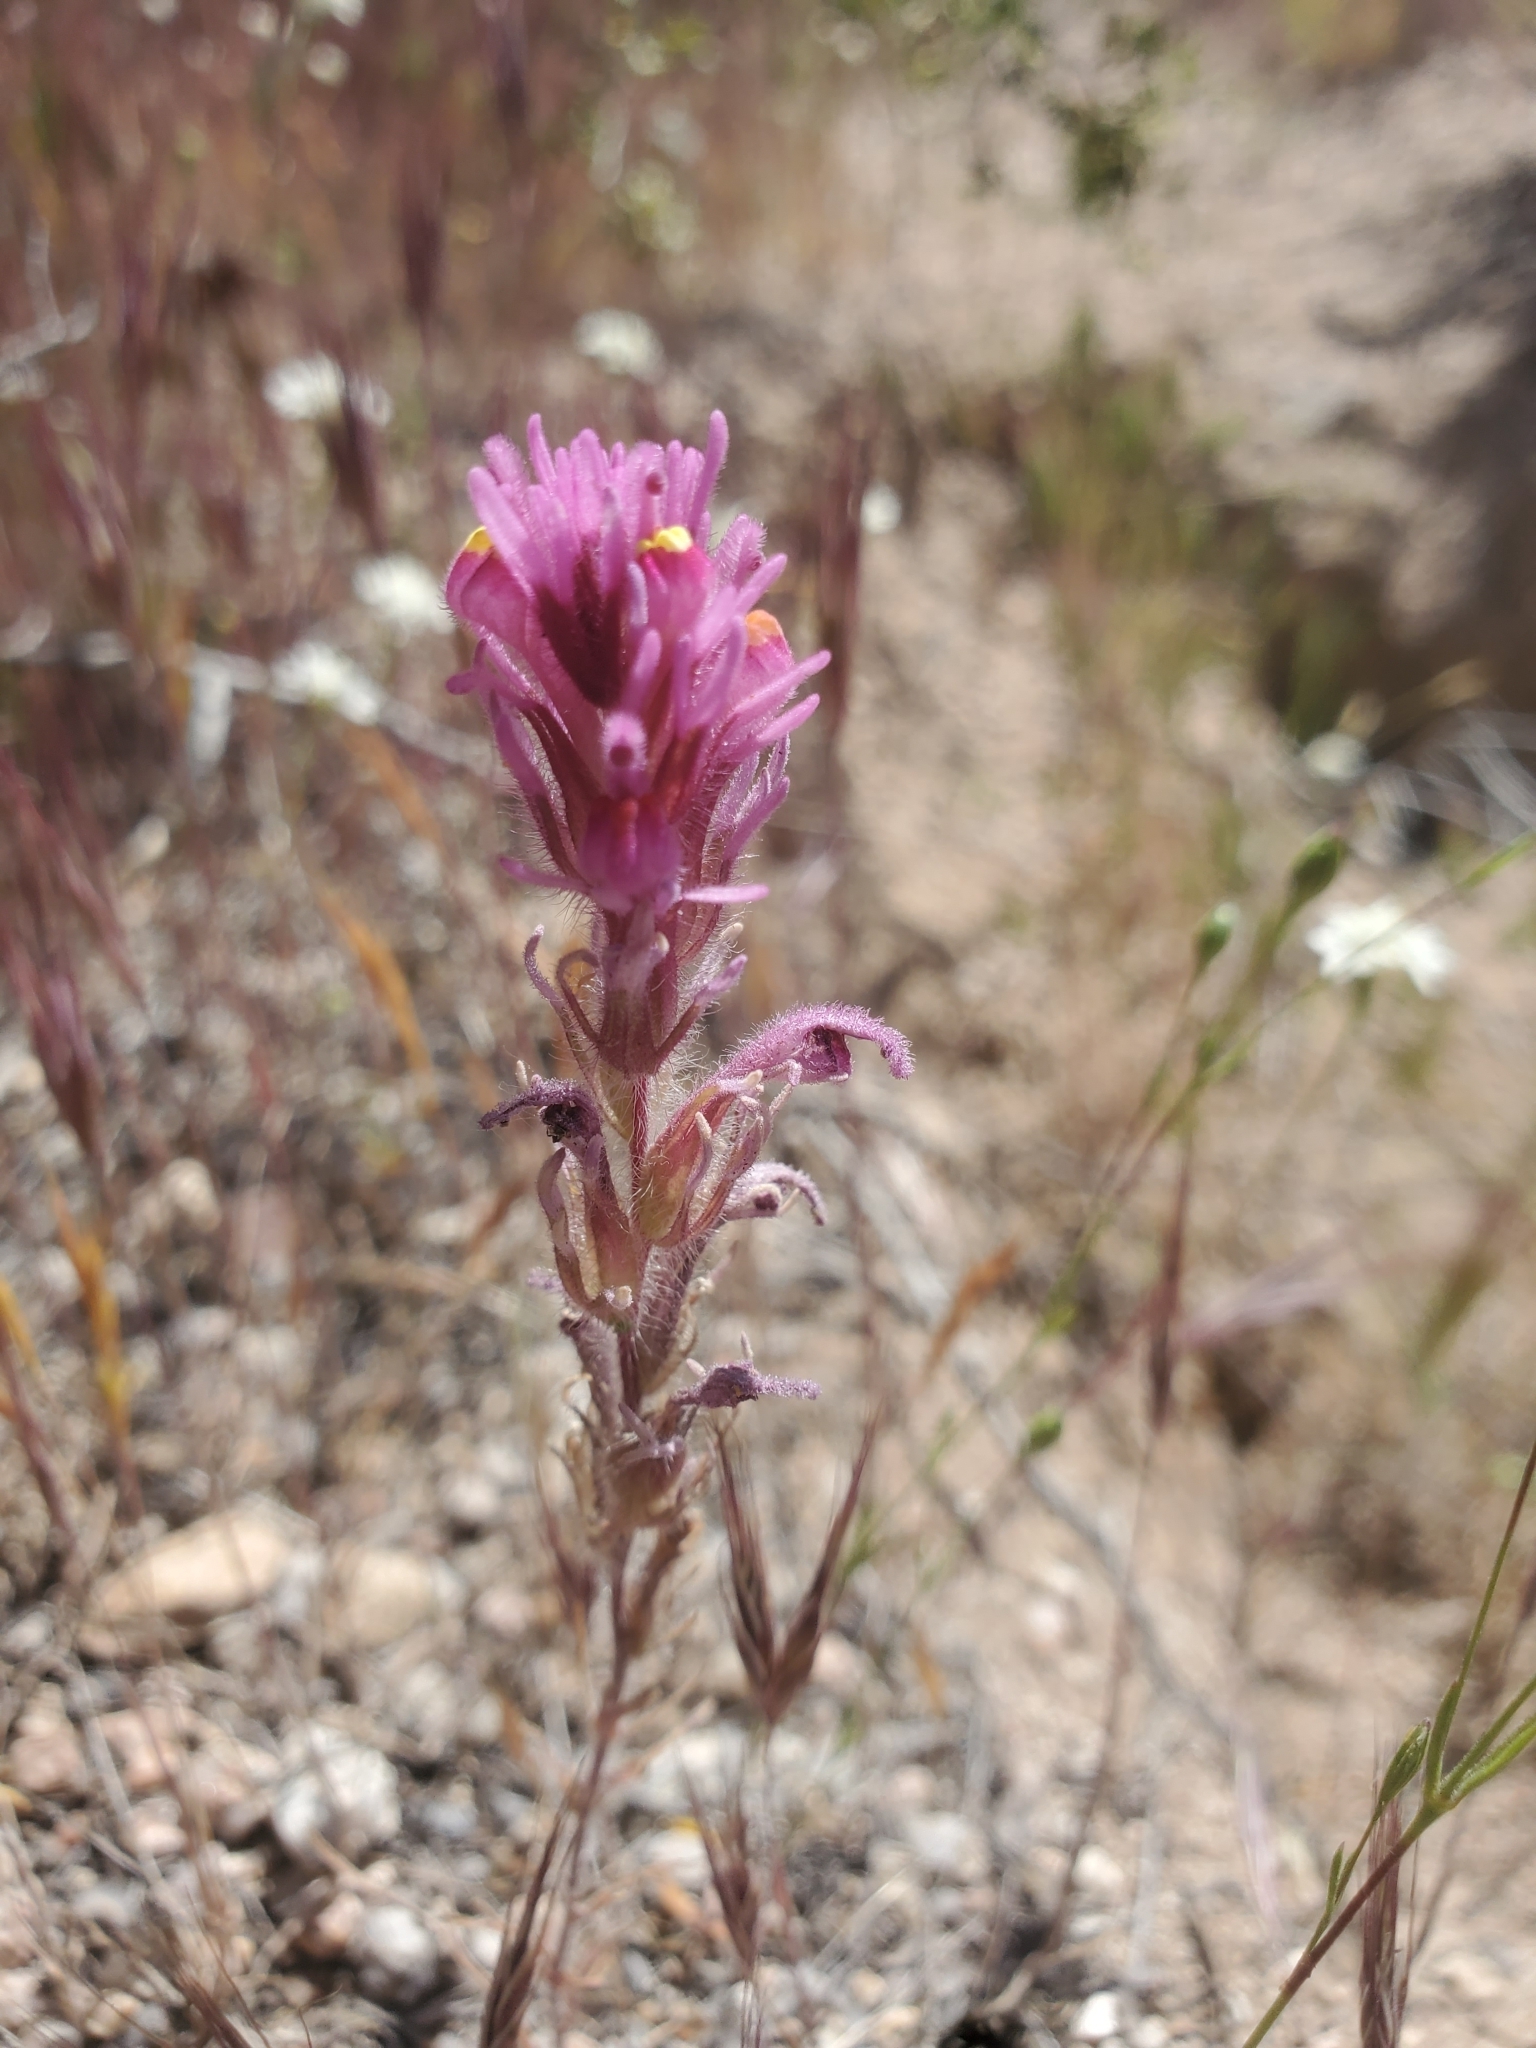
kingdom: Plantae
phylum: Tracheophyta
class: Magnoliopsida
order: Lamiales
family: Orobanchaceae
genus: Castilleja
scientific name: Castilleja exserta
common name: Purple owl-clover
